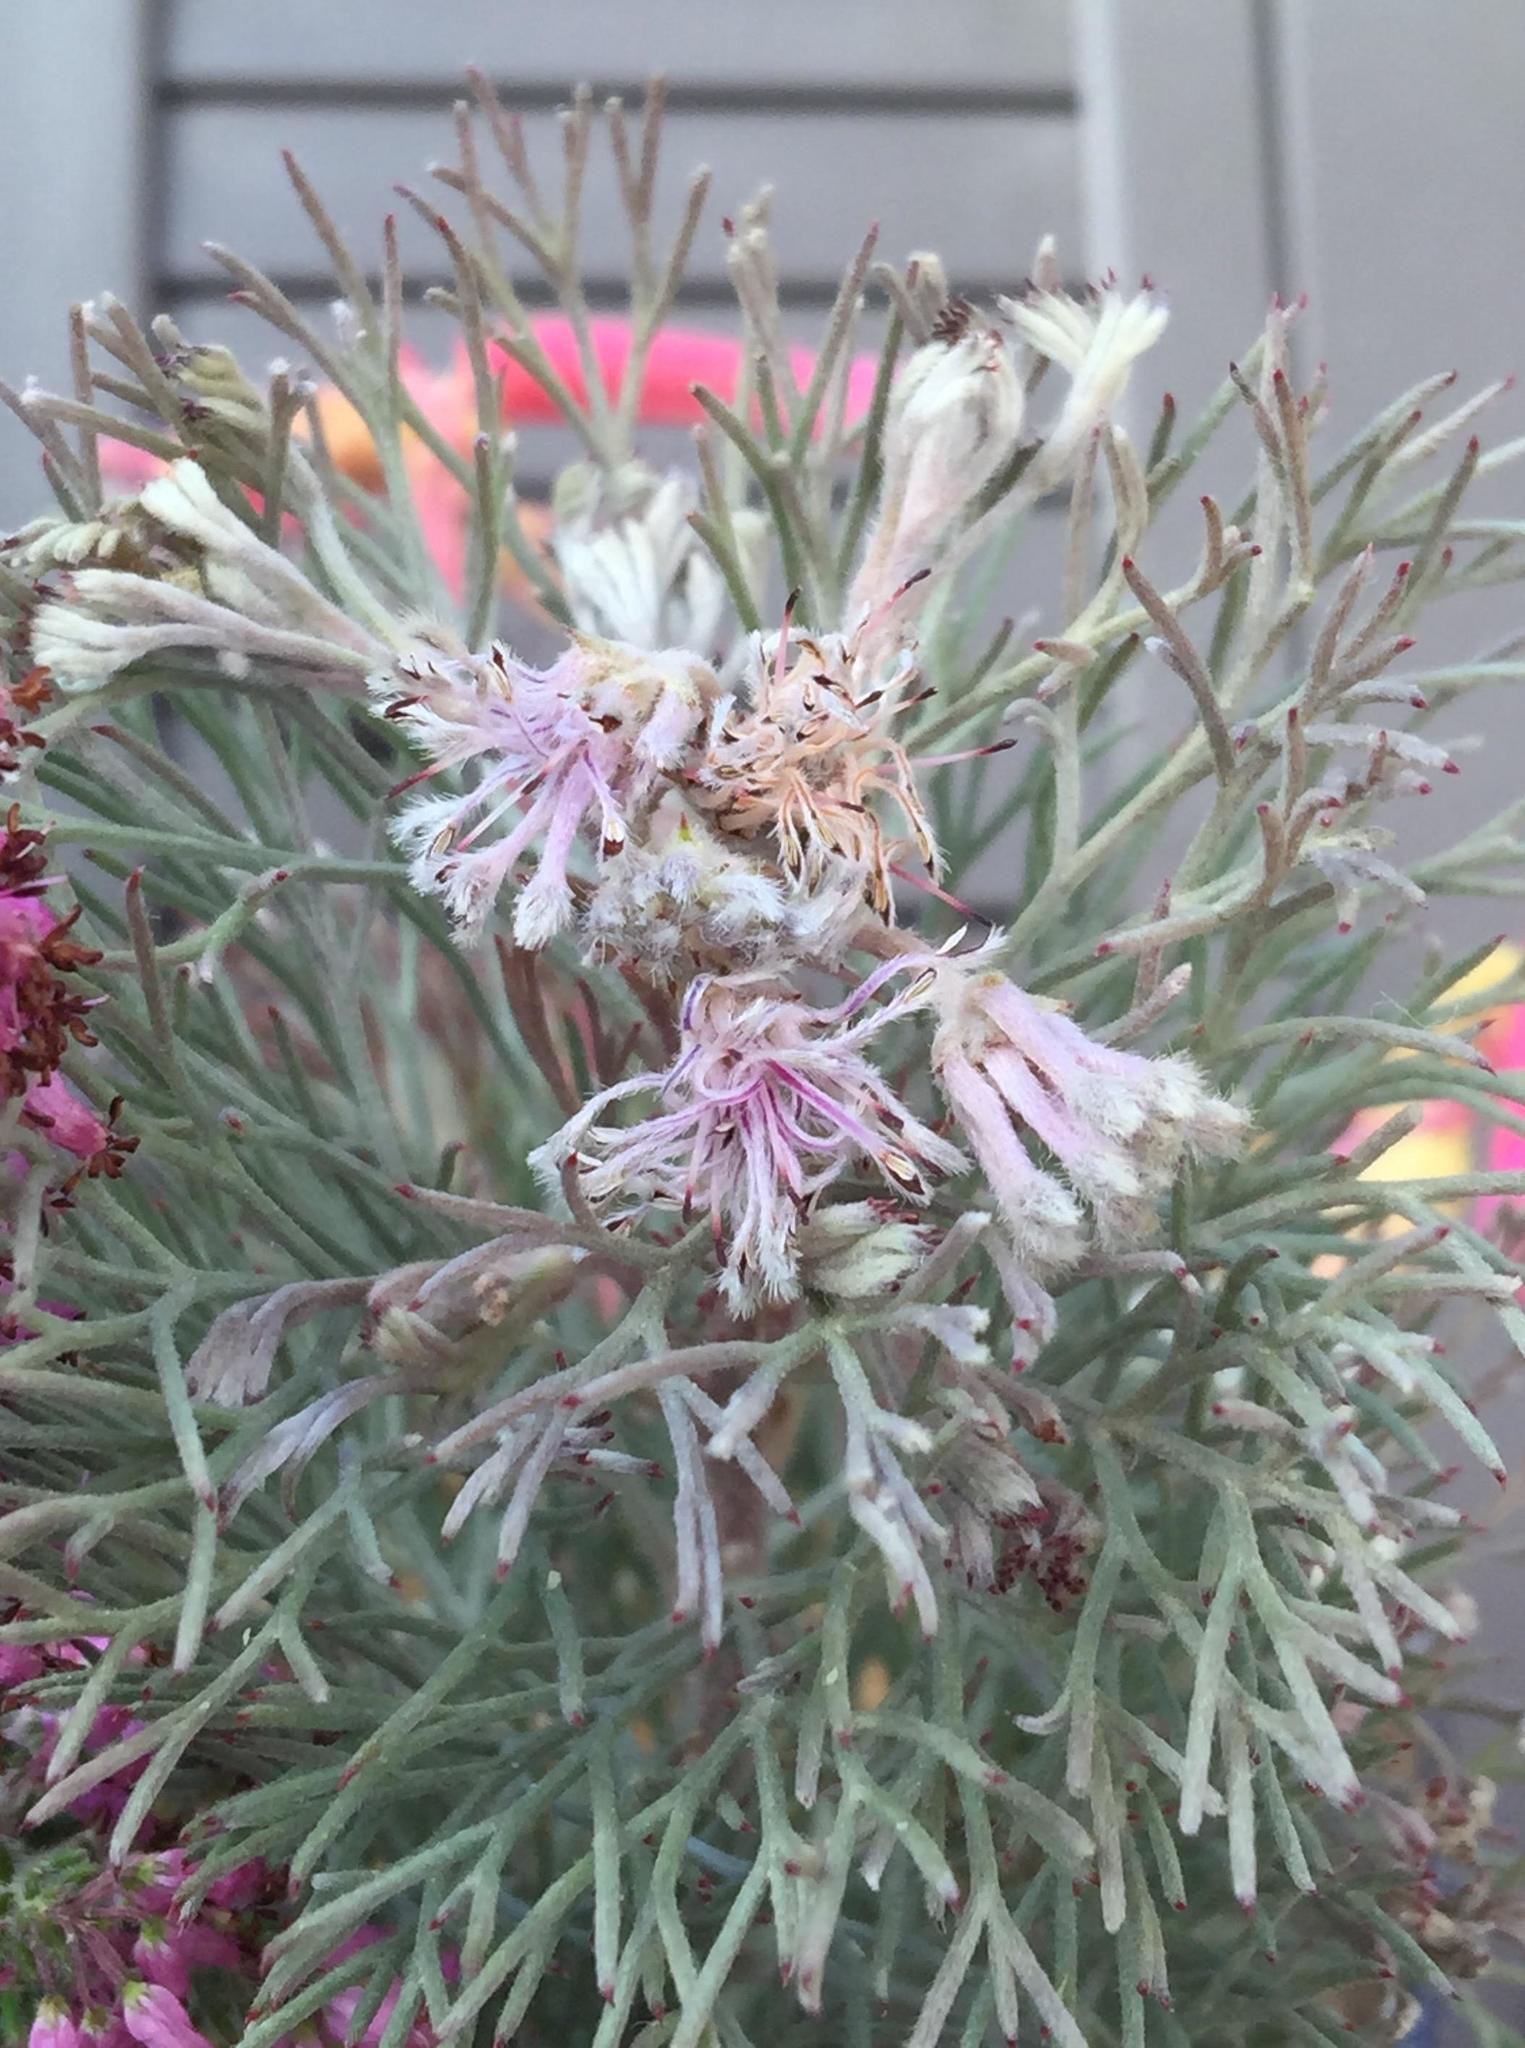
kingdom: Plantae
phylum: Tracheophyta
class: Magnoliopsida
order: Proteales
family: Proteaceae
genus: Serruria
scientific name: Serruria candicans
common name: Shiny spiderhead
